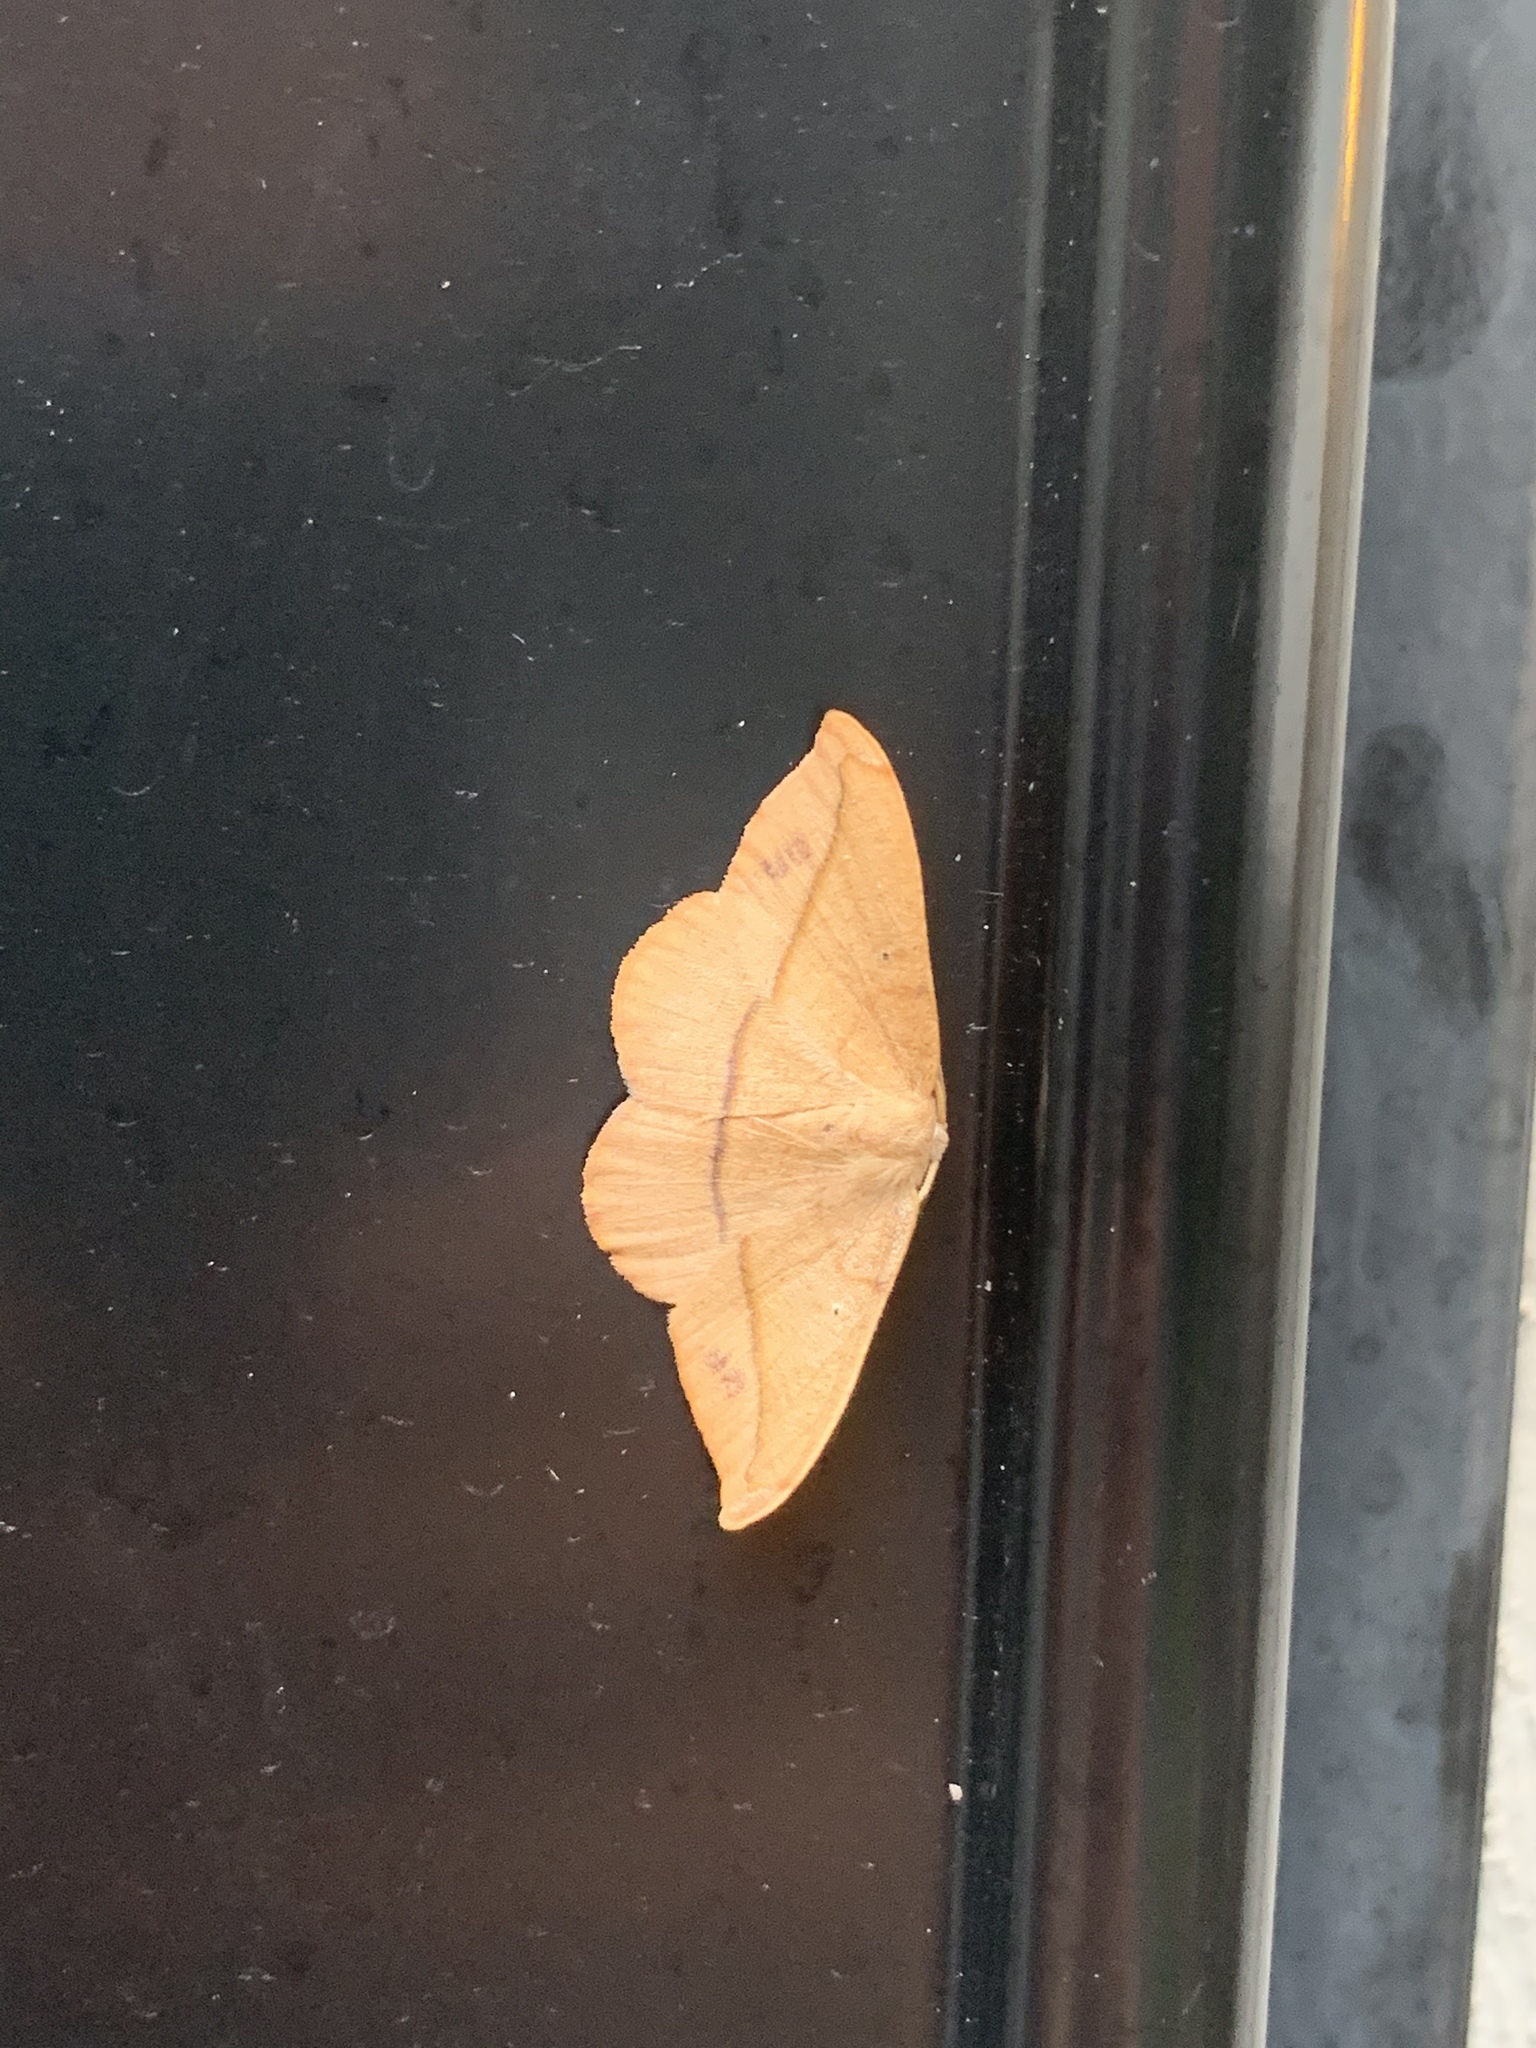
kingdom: Animalia
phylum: Arthropoda
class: Insecta
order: Lepidoptera
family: Geometridae
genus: Patalene
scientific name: Patalene olyzonaria
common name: Juniper geometer moth
